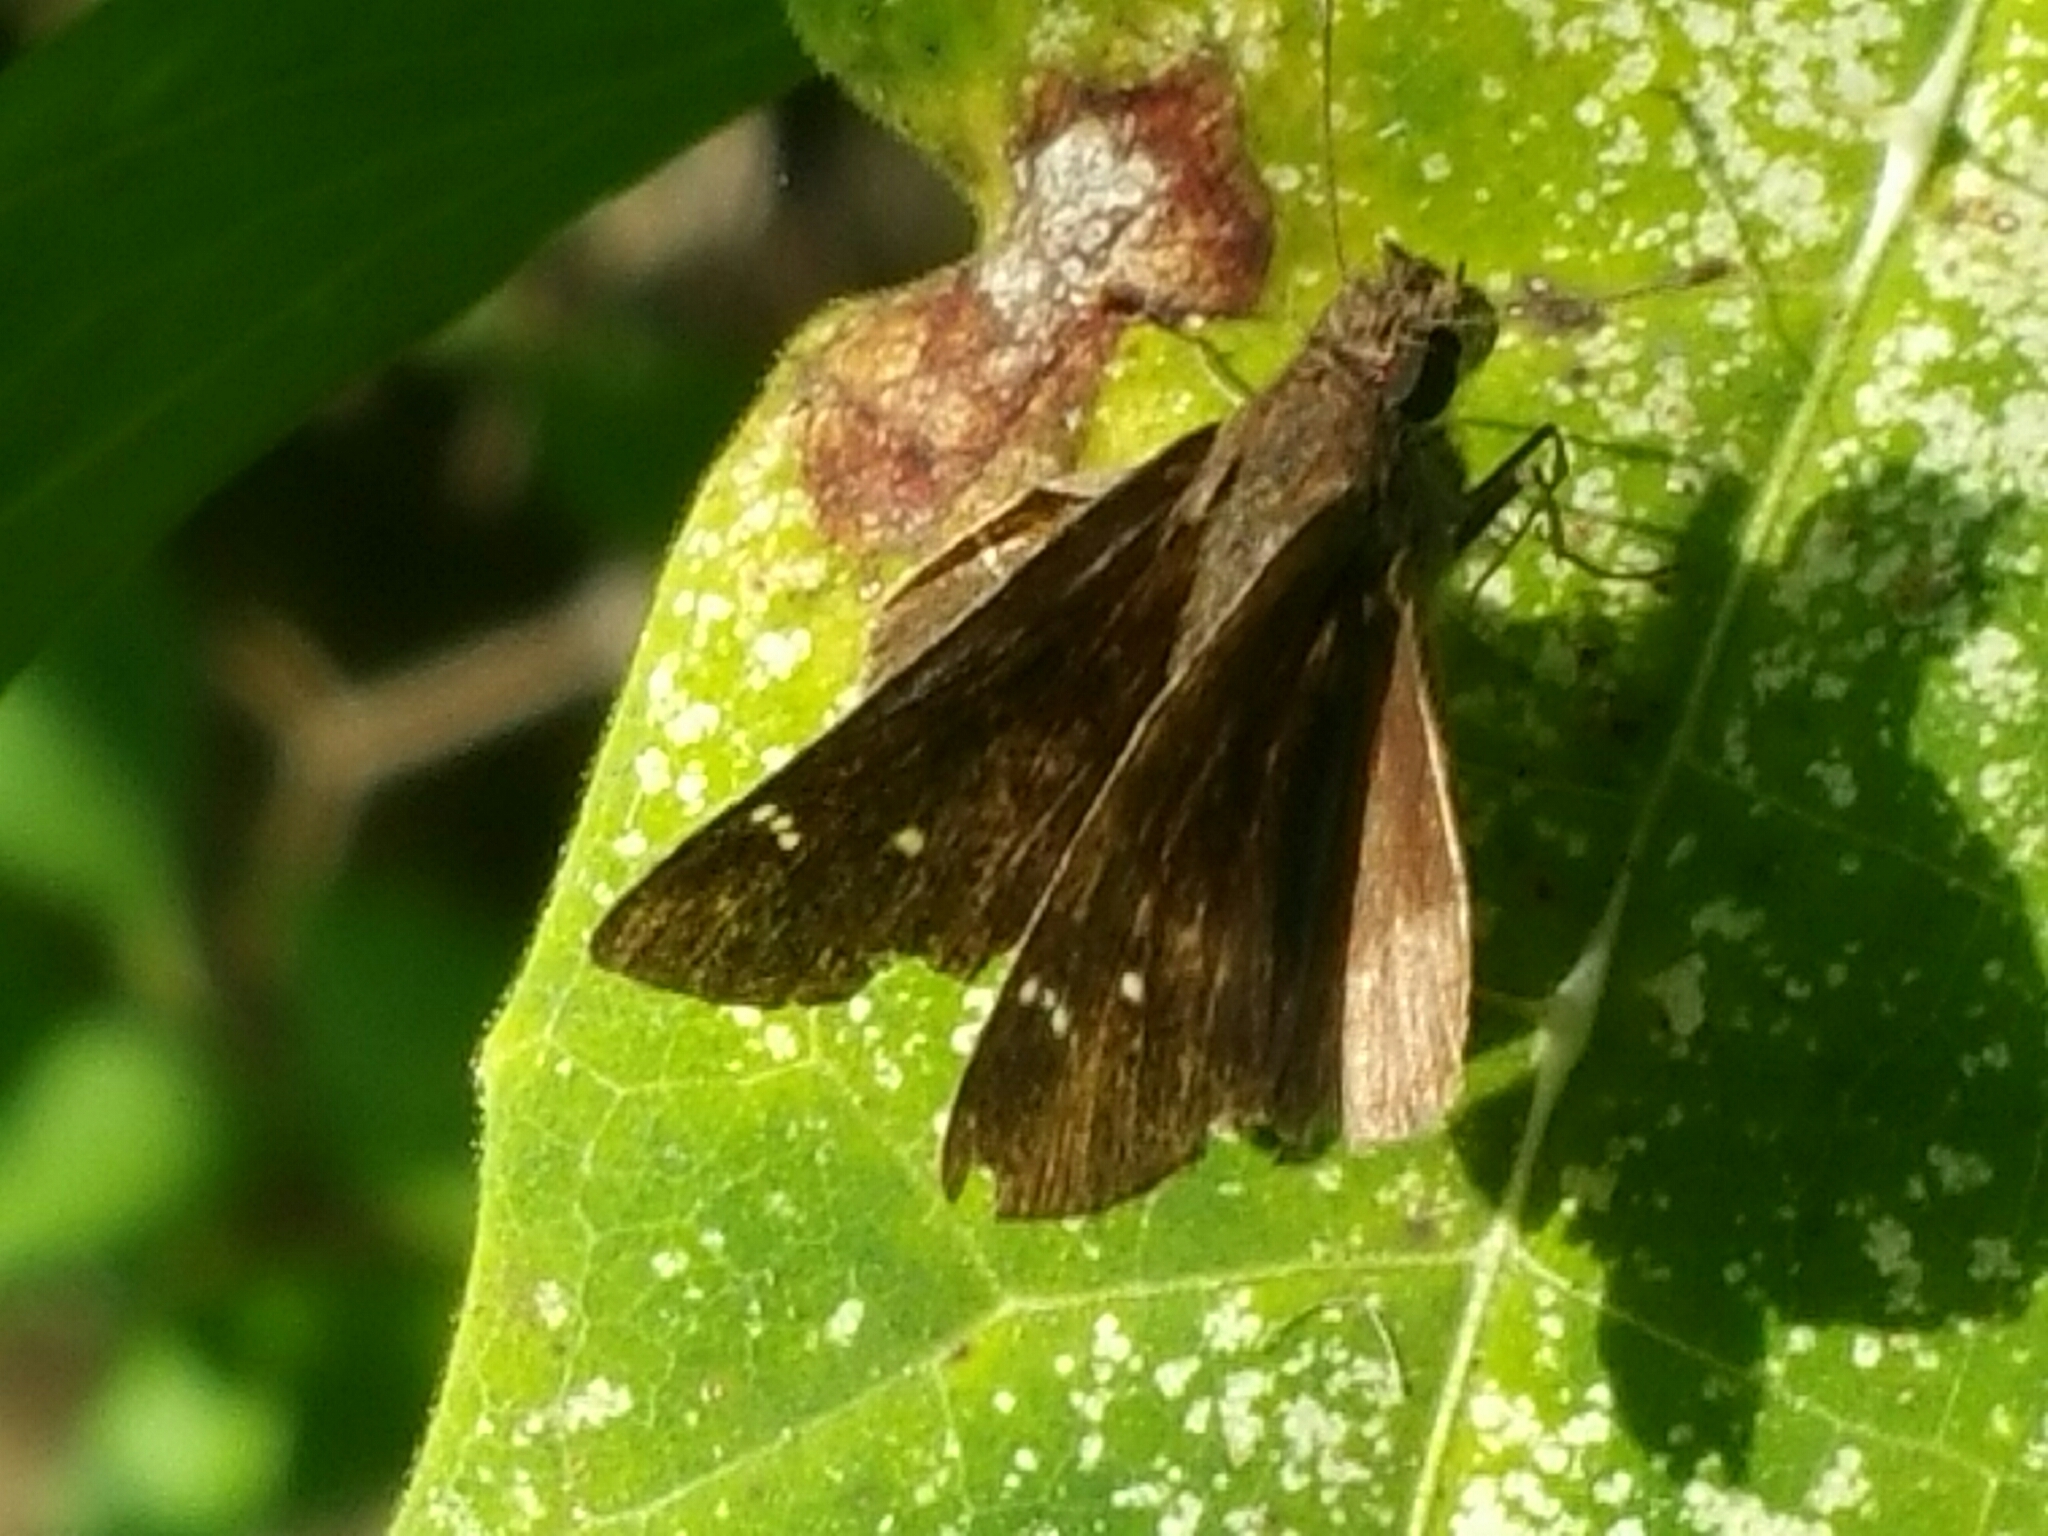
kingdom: Animalia
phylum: Arthropoda
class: Insecta
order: Lepidoptera
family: Hesperiidae
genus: Lerema
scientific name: Lerema accius
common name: Clouded skipper
